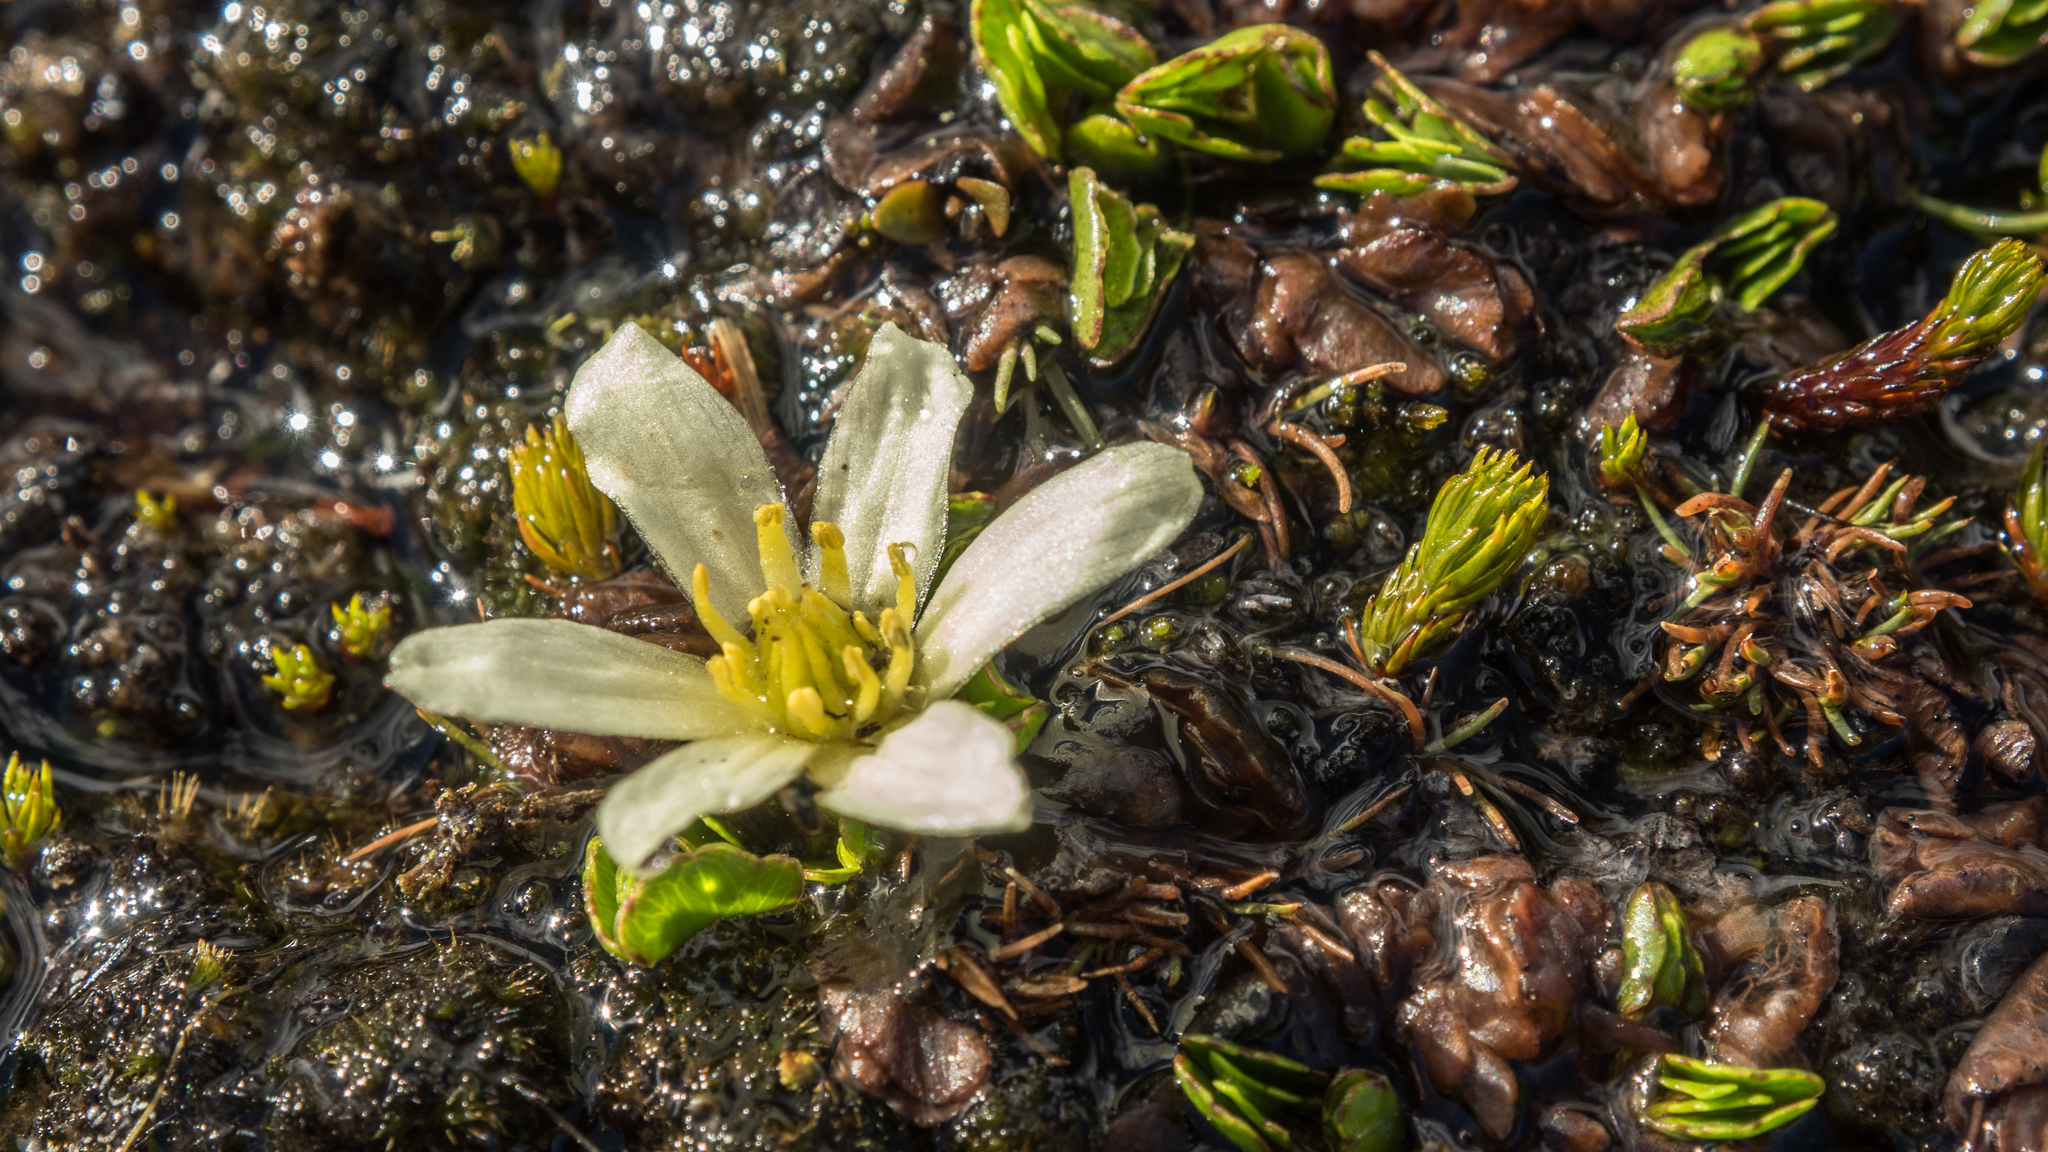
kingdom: Plantae
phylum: Tracheophyta
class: Magnoliopsida
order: Ranunculales
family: Ranunculaceae
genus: Caltha
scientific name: Caltha obtusa
